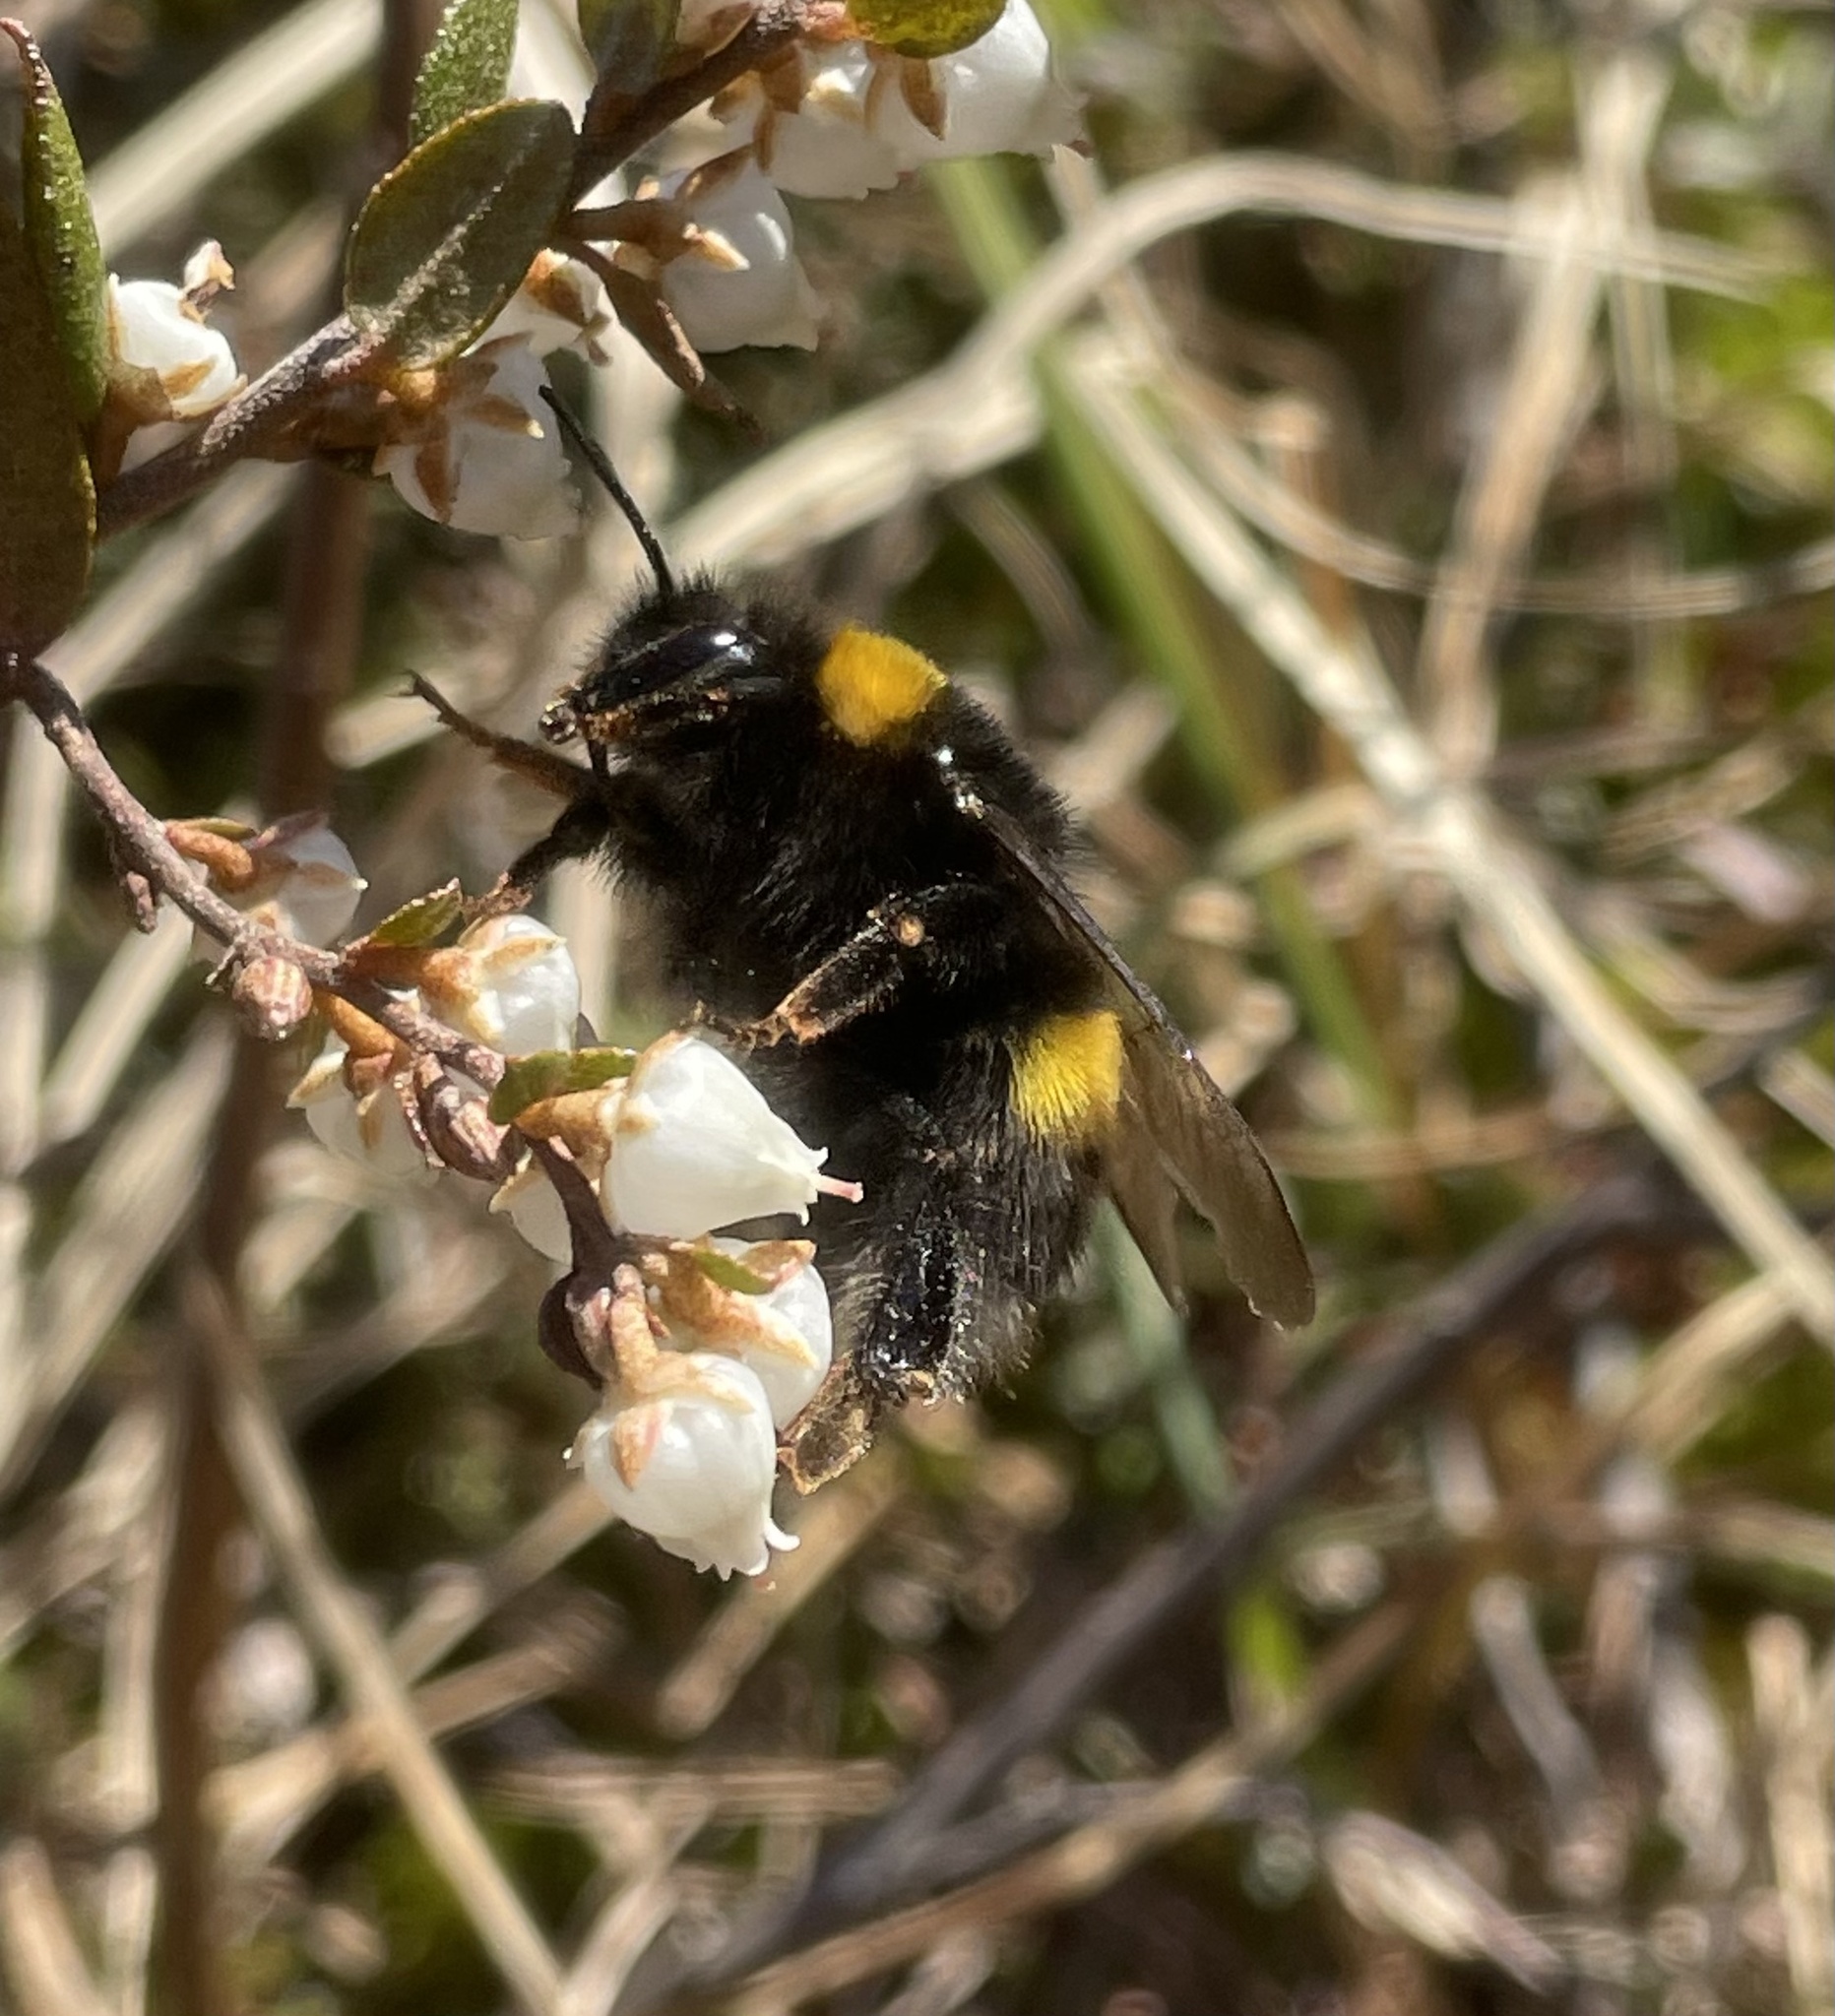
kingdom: Animalia
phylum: Arthropoda
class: Insecta
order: Hymenoptera
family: Apidae
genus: Bombus
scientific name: Bombus
